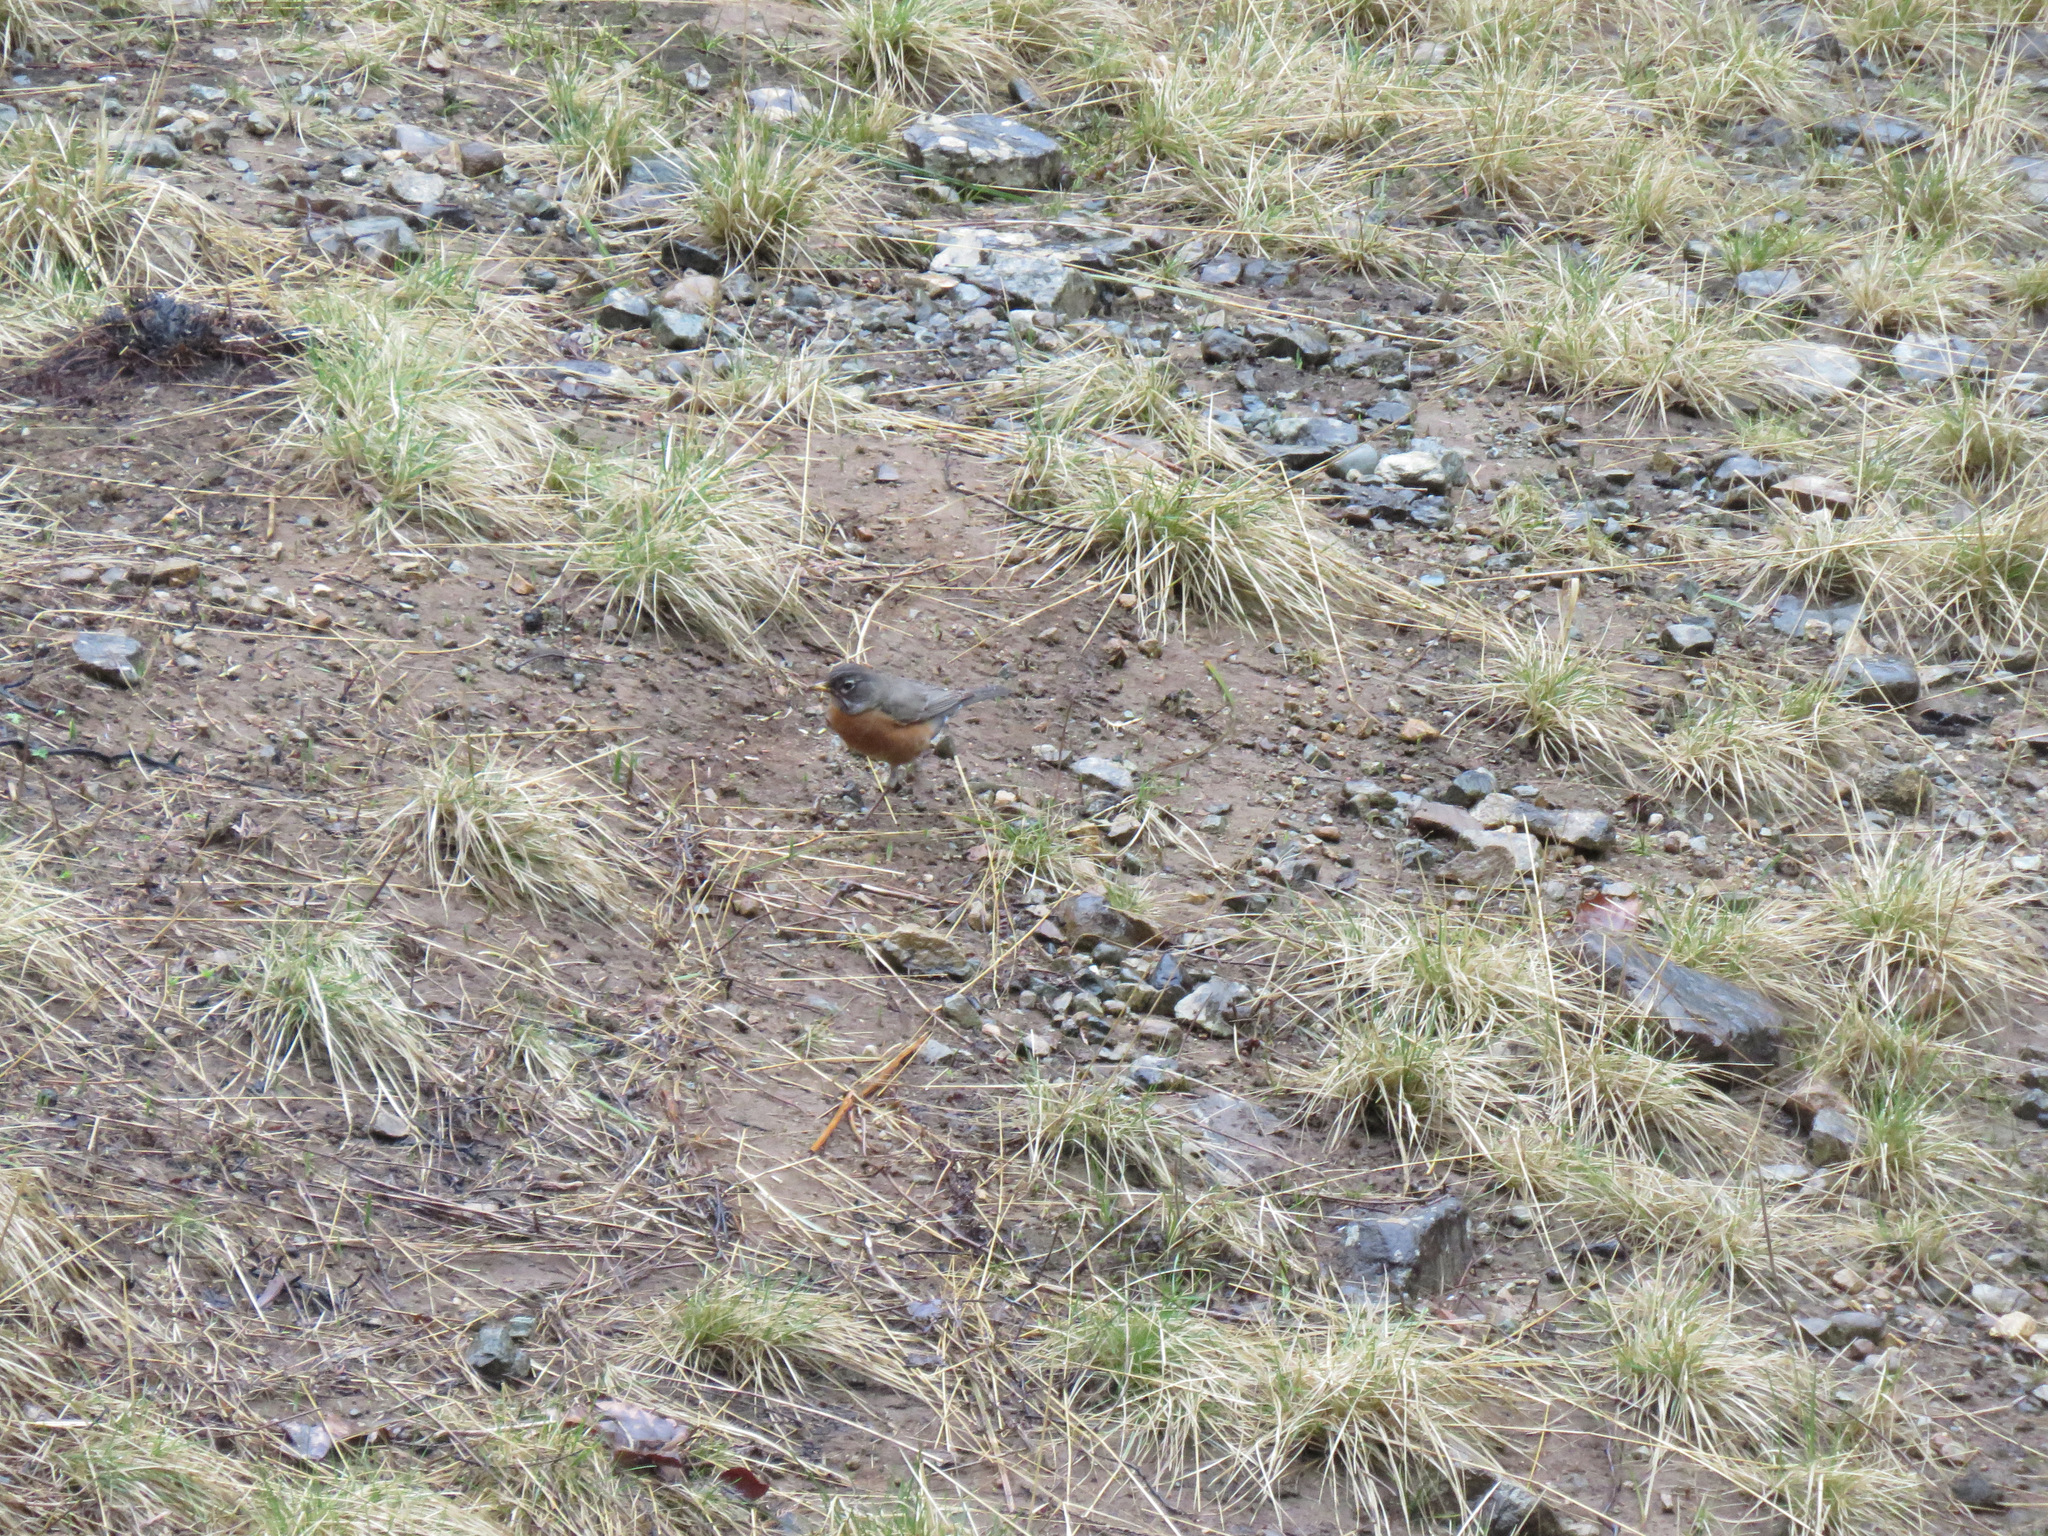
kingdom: Animalia
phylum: Chordata
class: Aves
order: Passeriformes
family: Turdidae
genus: Turdus
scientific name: Turdus migratorius
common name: American robin
